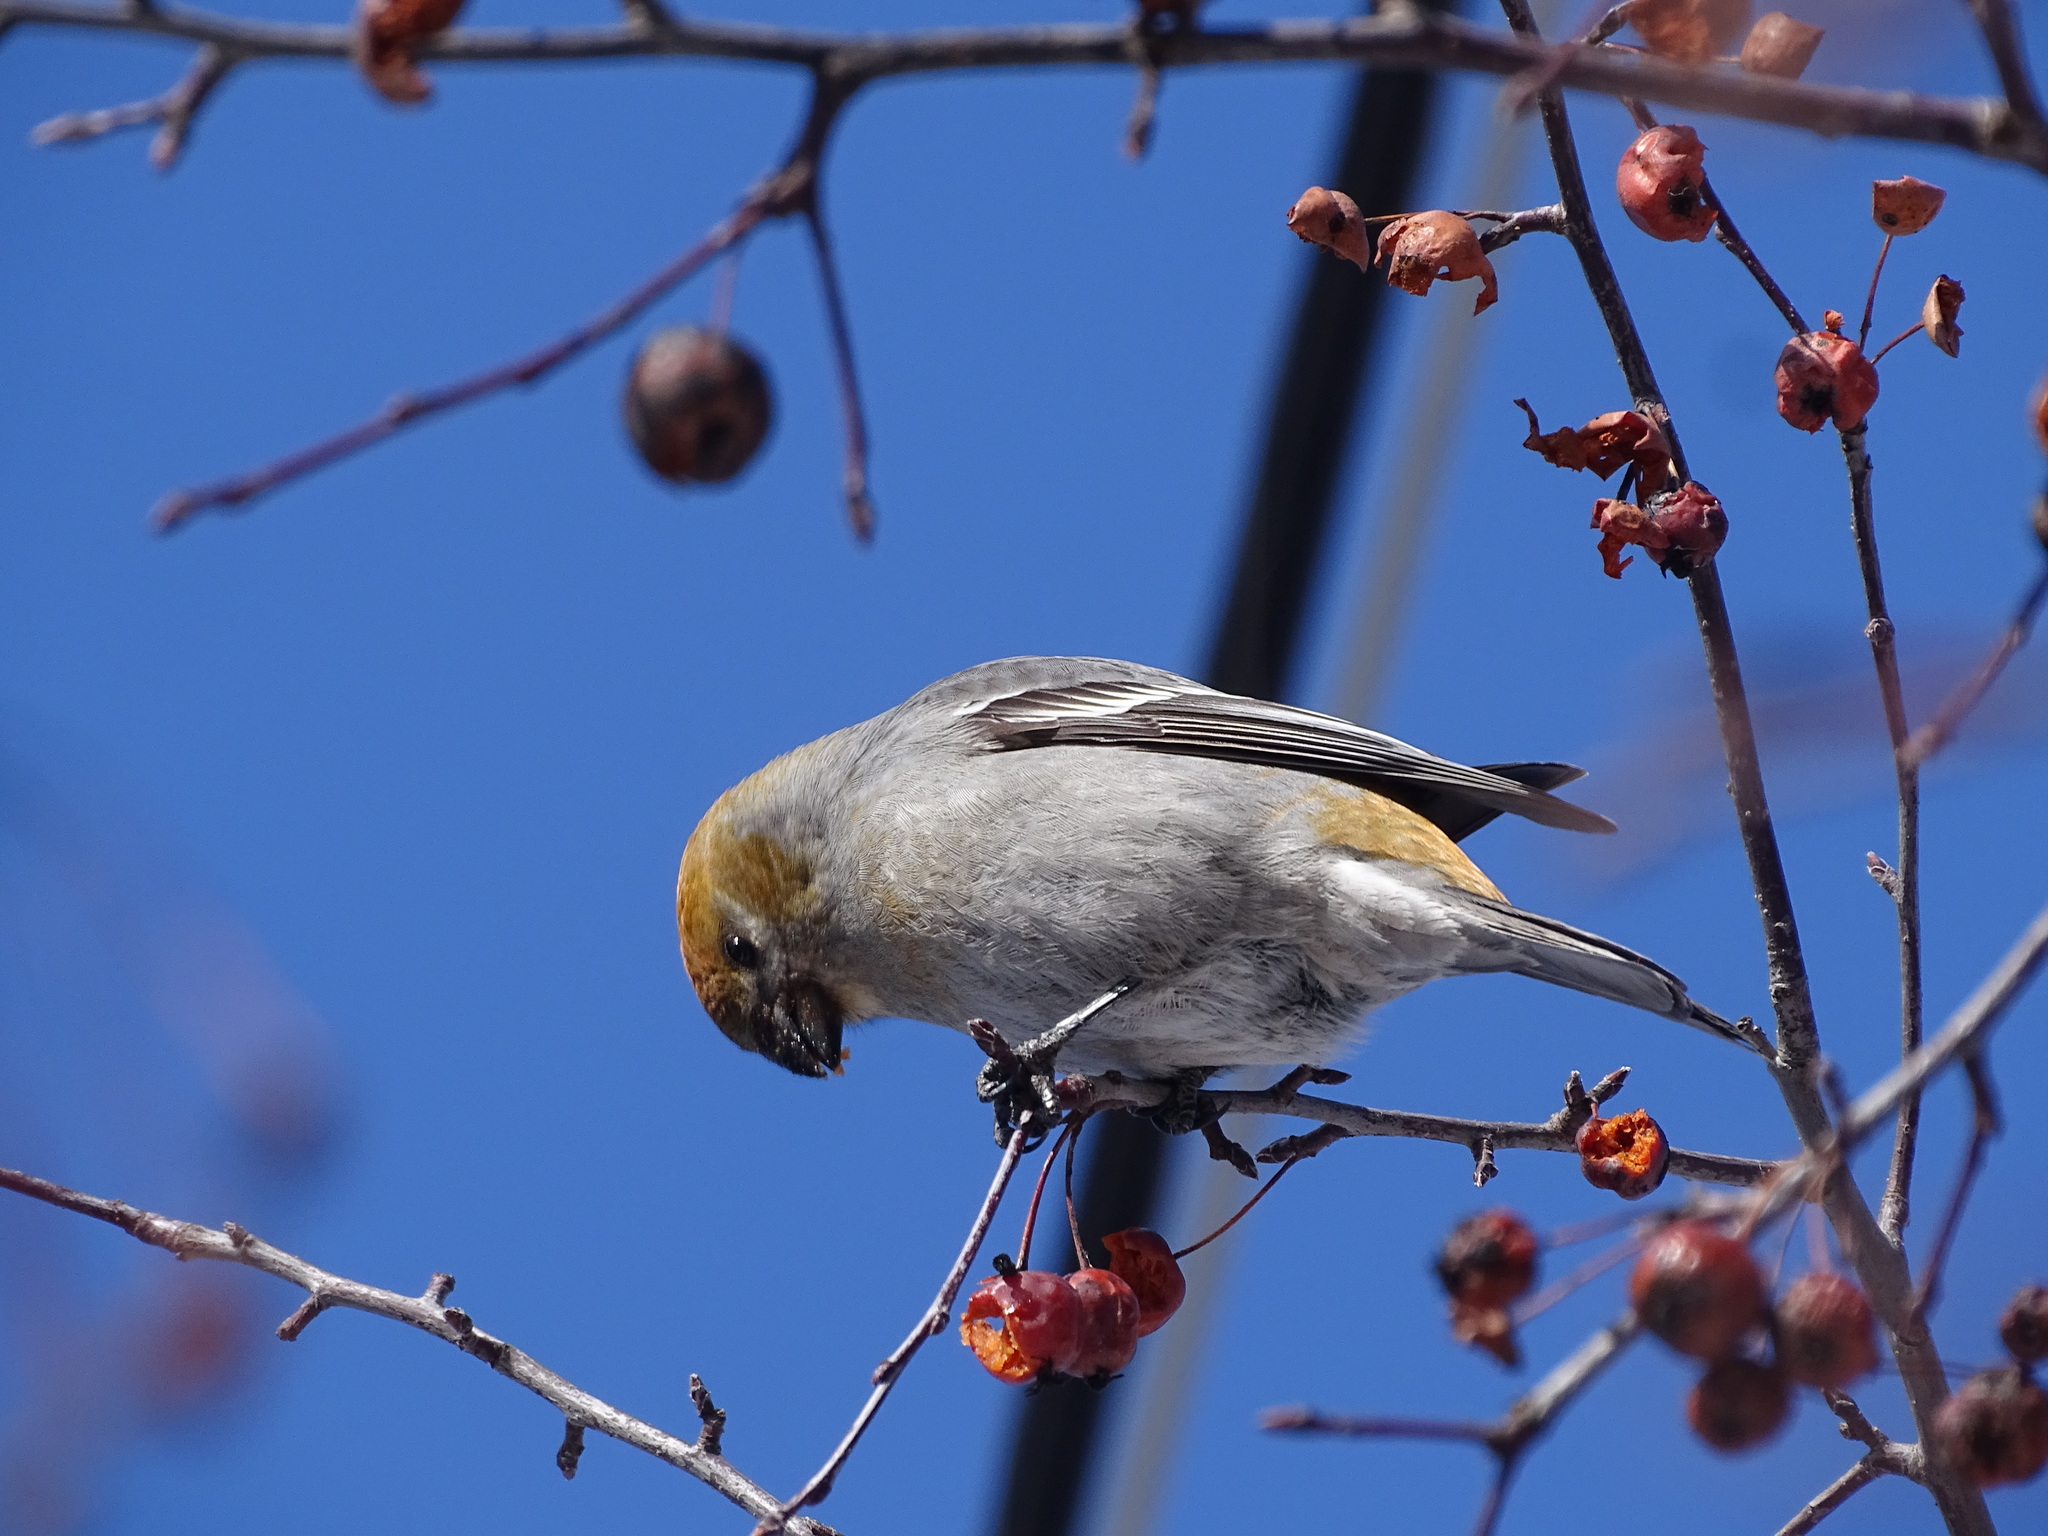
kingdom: Animalia
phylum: Chordata
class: Aves
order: Passeriformes
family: Fringillidae
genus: Pinicola
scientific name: Pinicola enucleator
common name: Pine grosbeak
